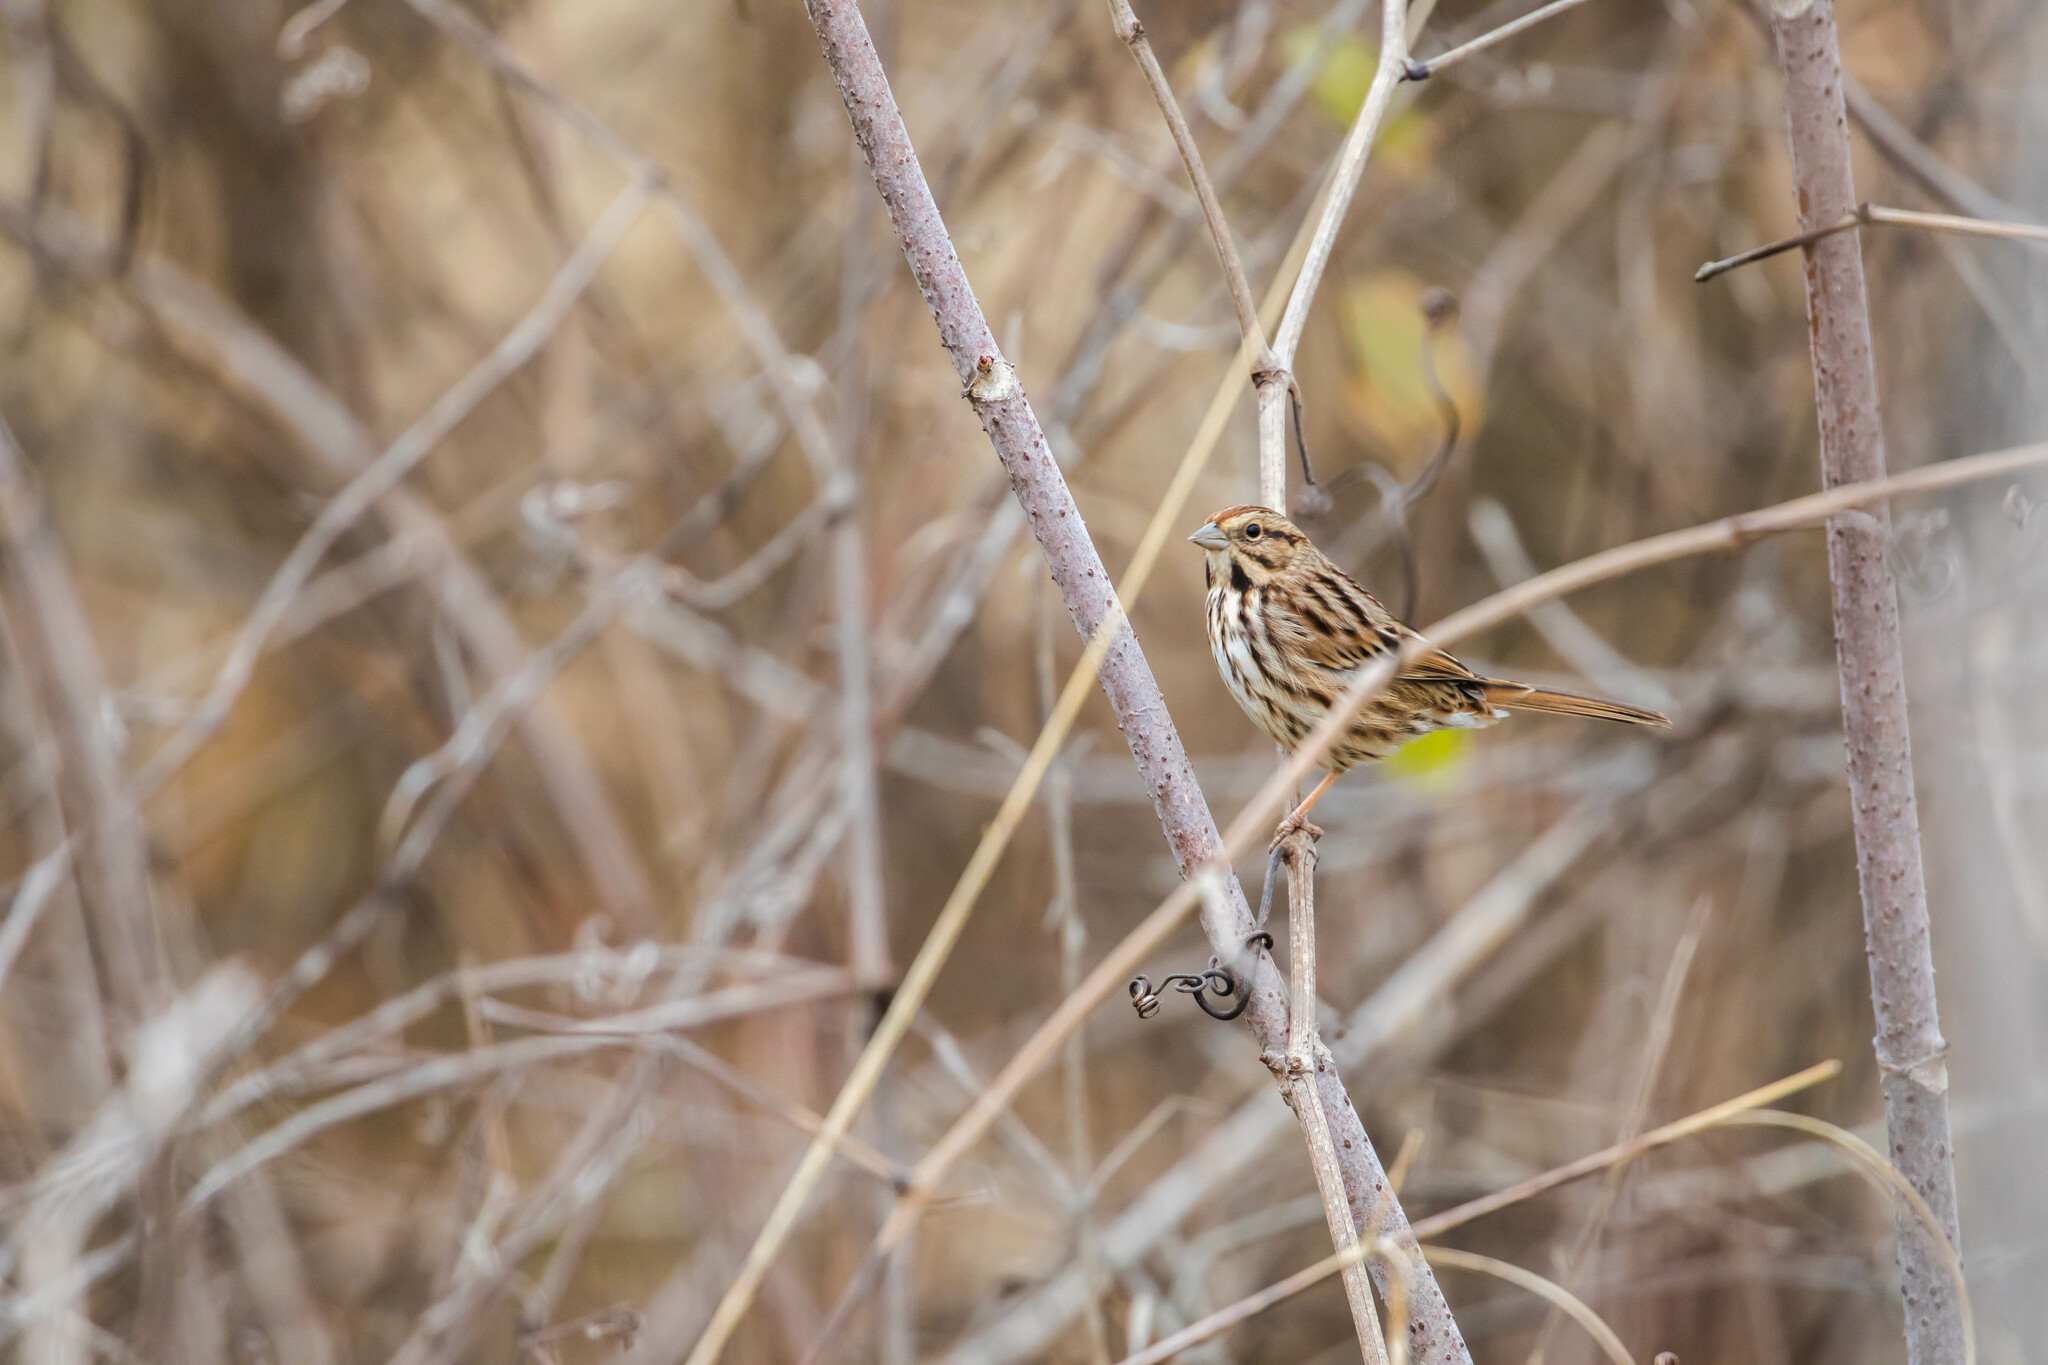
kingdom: Animalia
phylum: Chordata
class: Aves
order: Passeriformes
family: Passerellidae
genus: Melospiza
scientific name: Melospiza melodia
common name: Song sparrow
